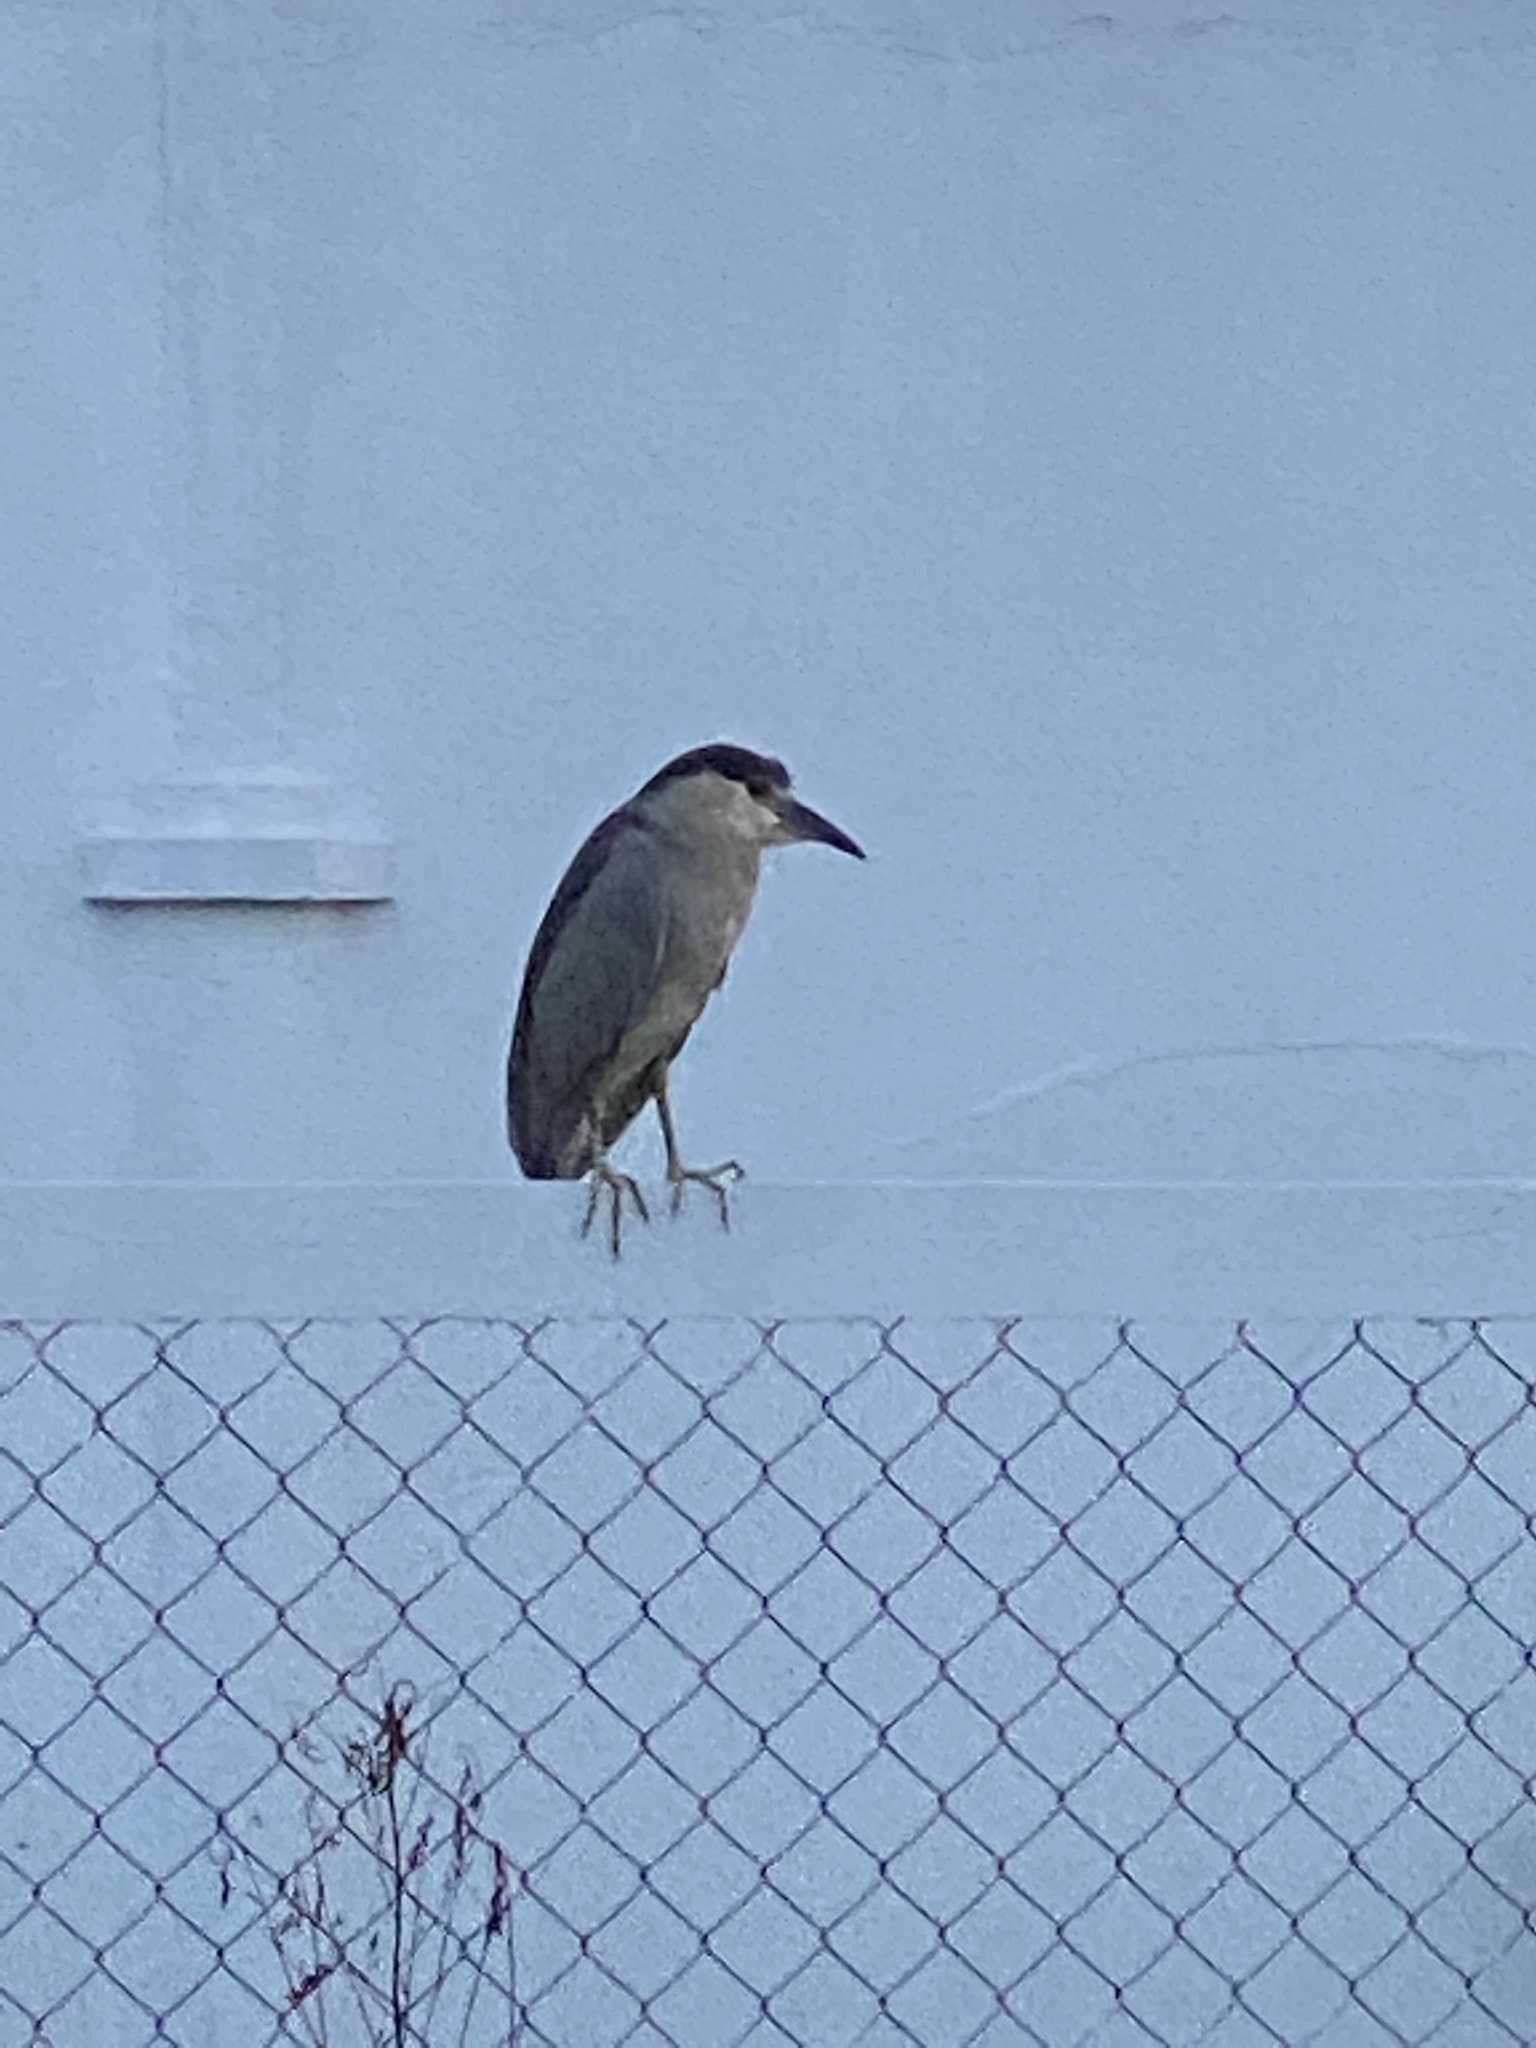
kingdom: Animalia
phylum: Chordata
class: Aves
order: Pelecaniformes
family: Ardeidae
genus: Nycticorax
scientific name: Nycticorax nycticorax
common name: Black-crowned night heron
